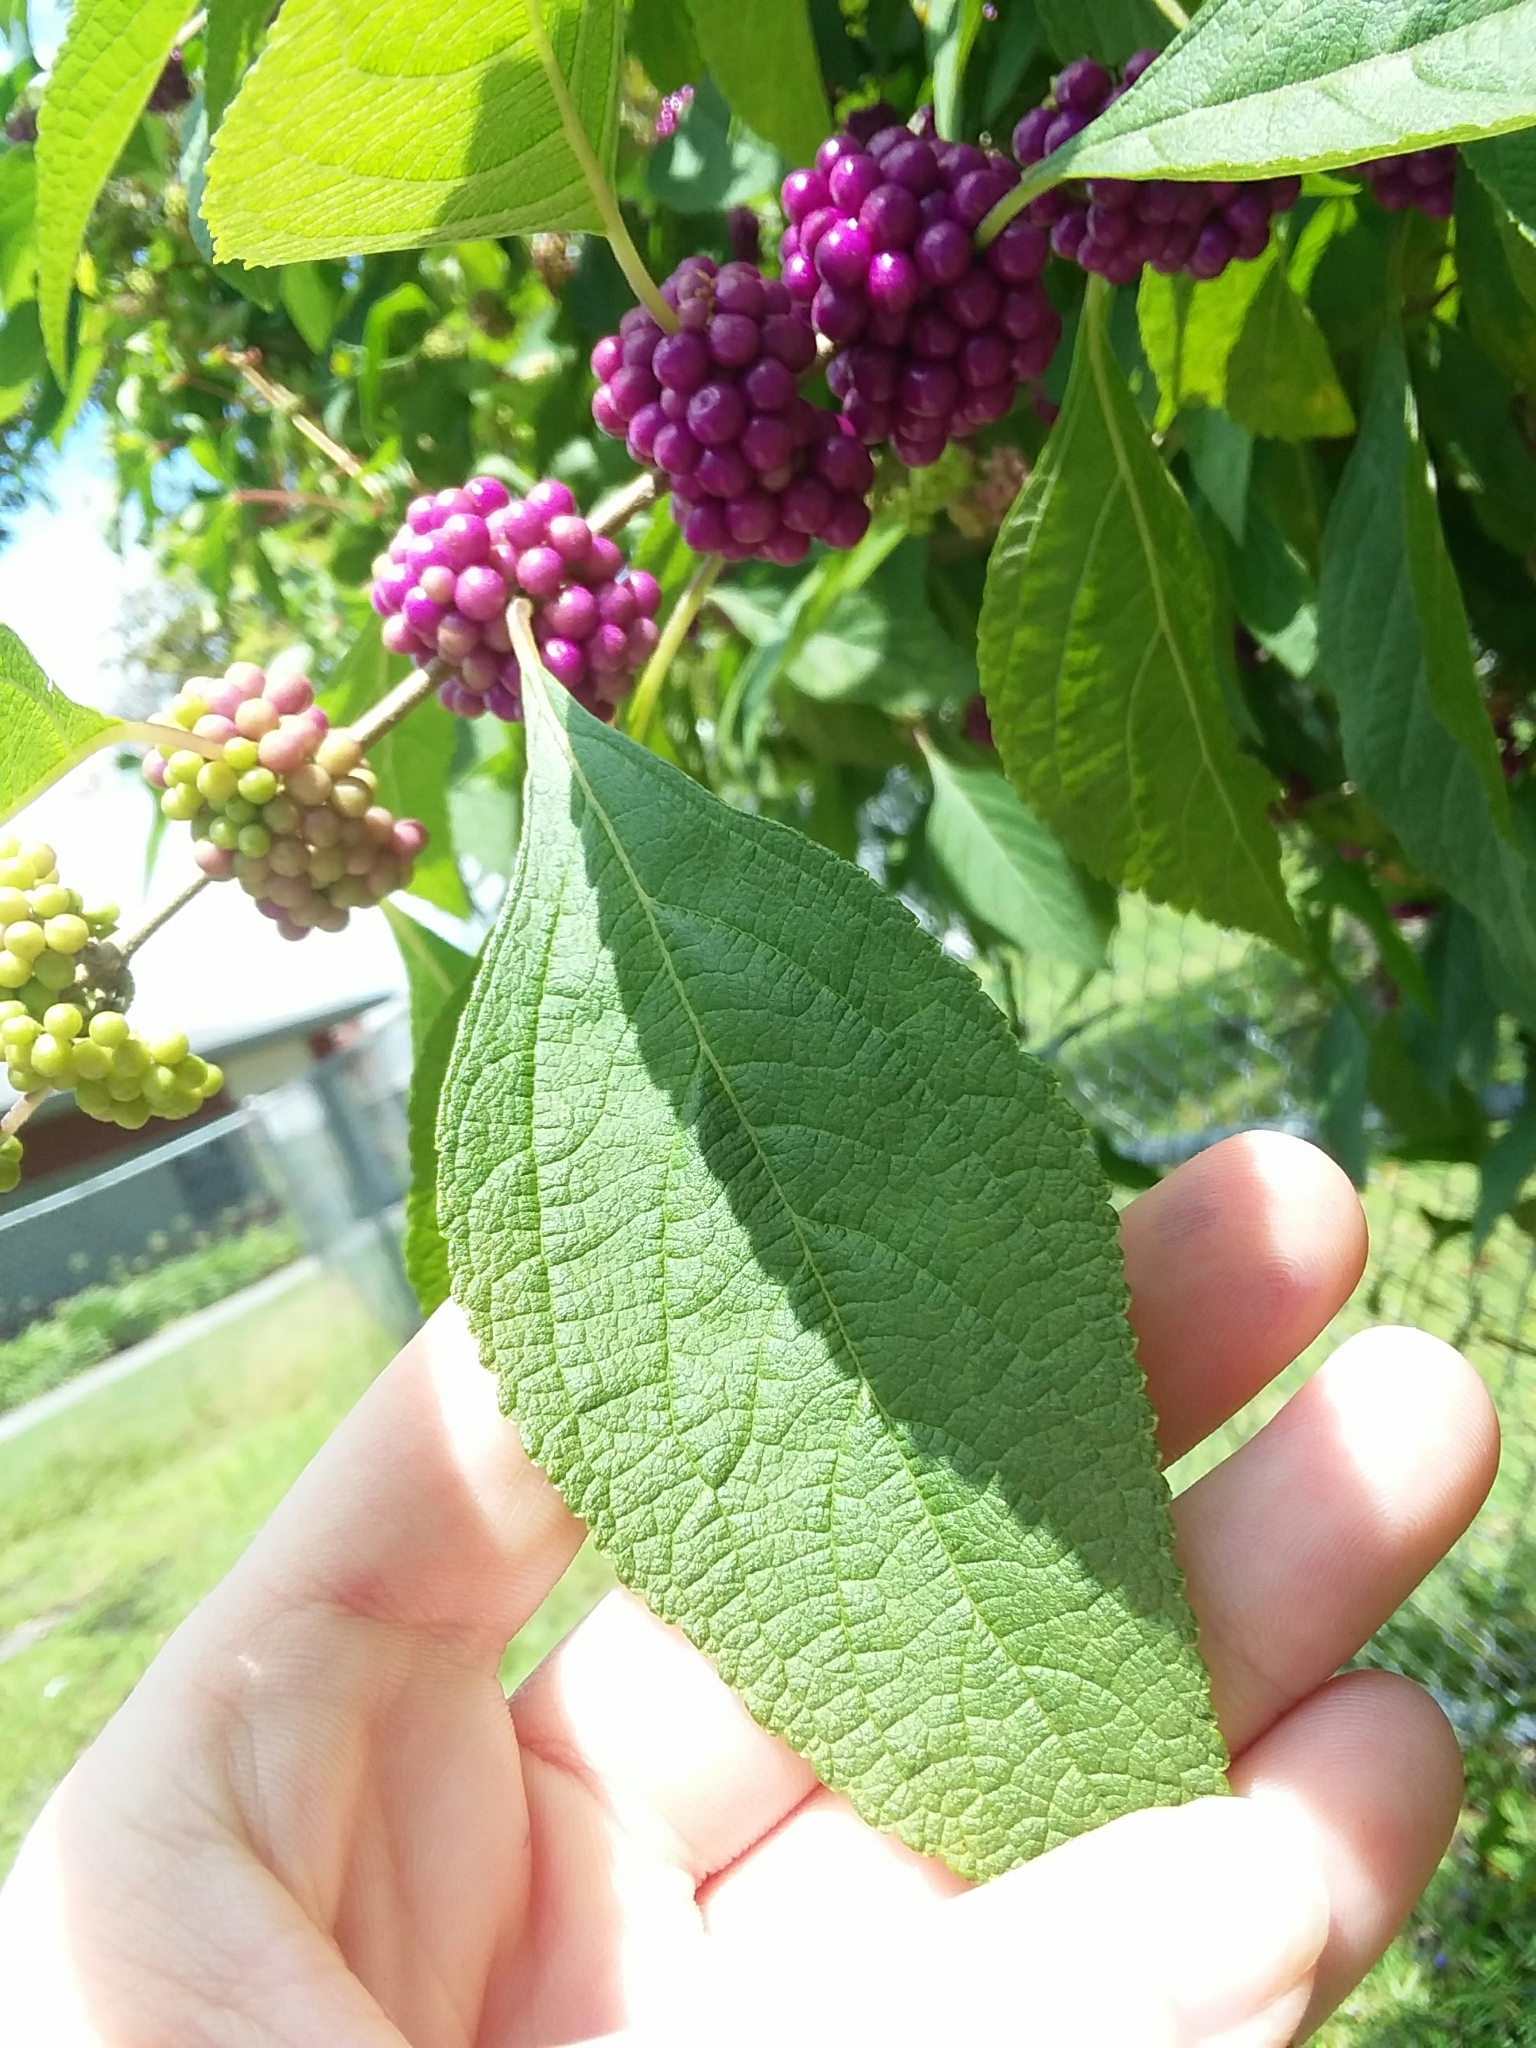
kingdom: Plantae
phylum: Tracheophyta
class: Magnoliopsida
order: Lamiales
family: Lamiaceae
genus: Callicarpa
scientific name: Callicarpa americana
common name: American beautyberry
